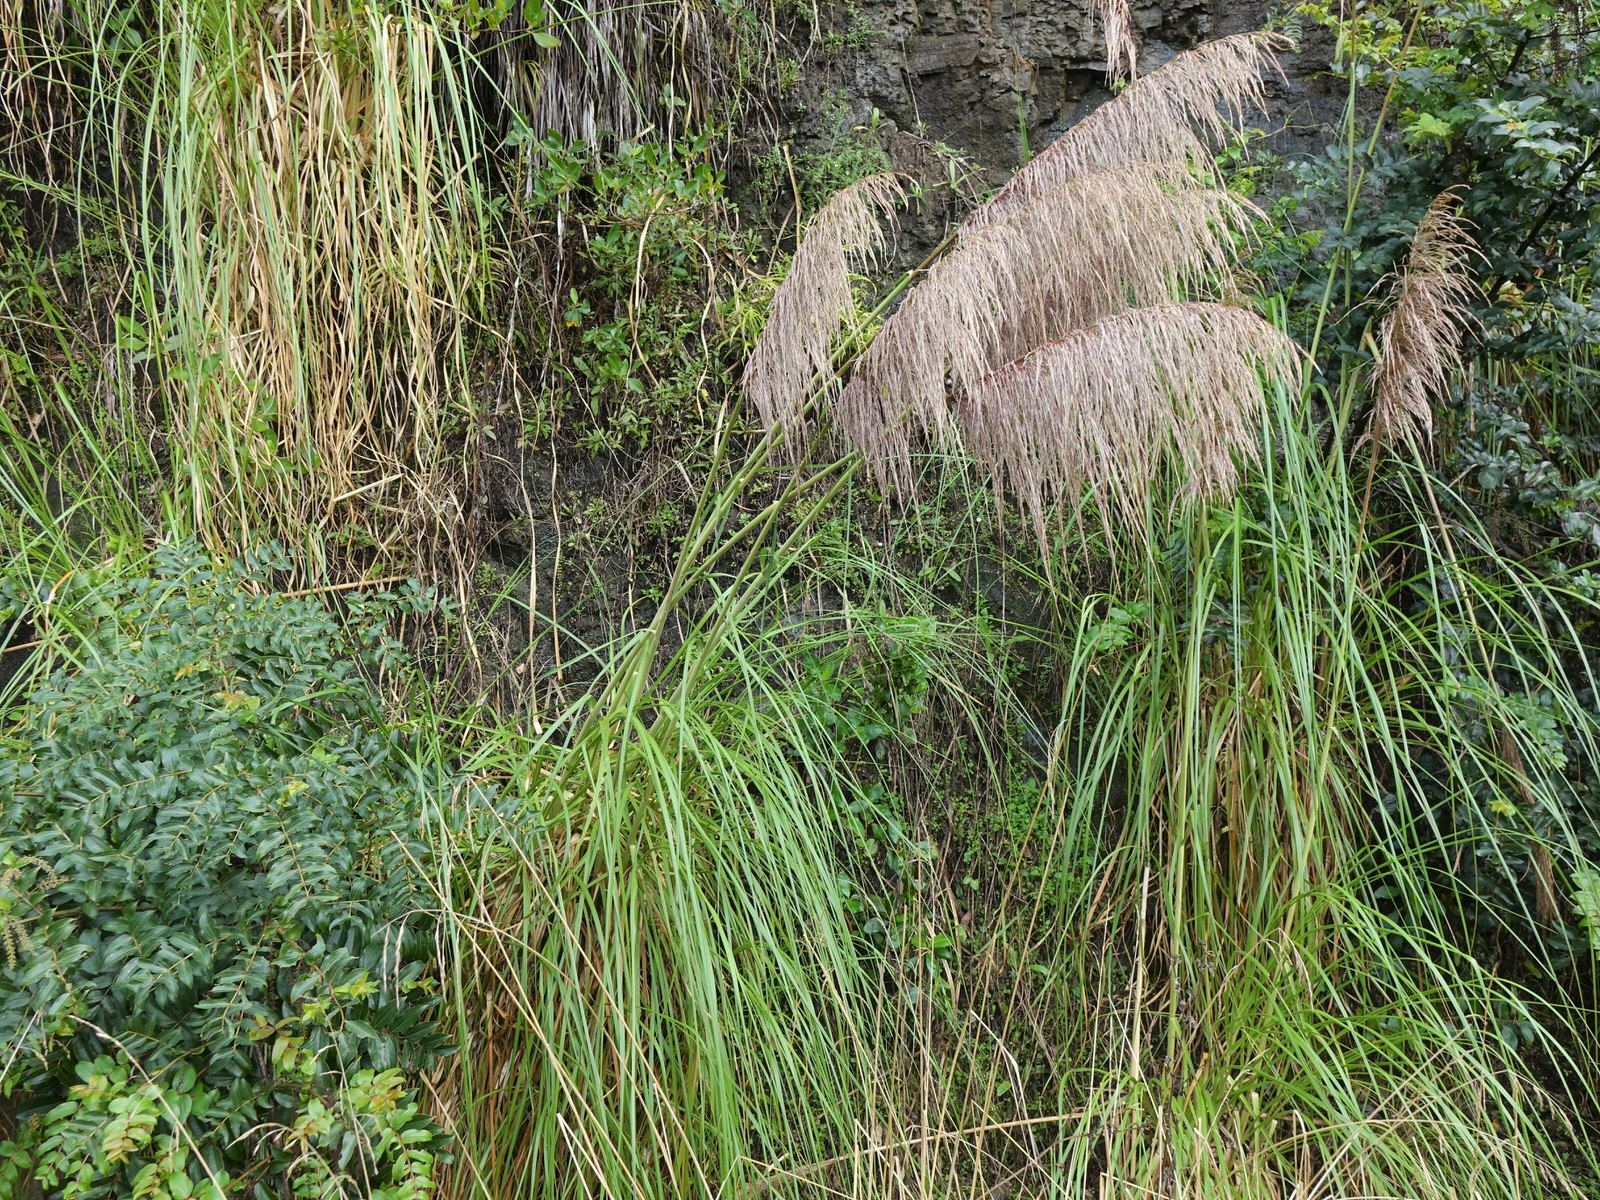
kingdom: Plantae
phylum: Tracheophyta
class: Liliopsida
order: Poales
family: Poaceae
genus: Cortaderia
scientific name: Cortaderia jubata
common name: Purple pampas grass
